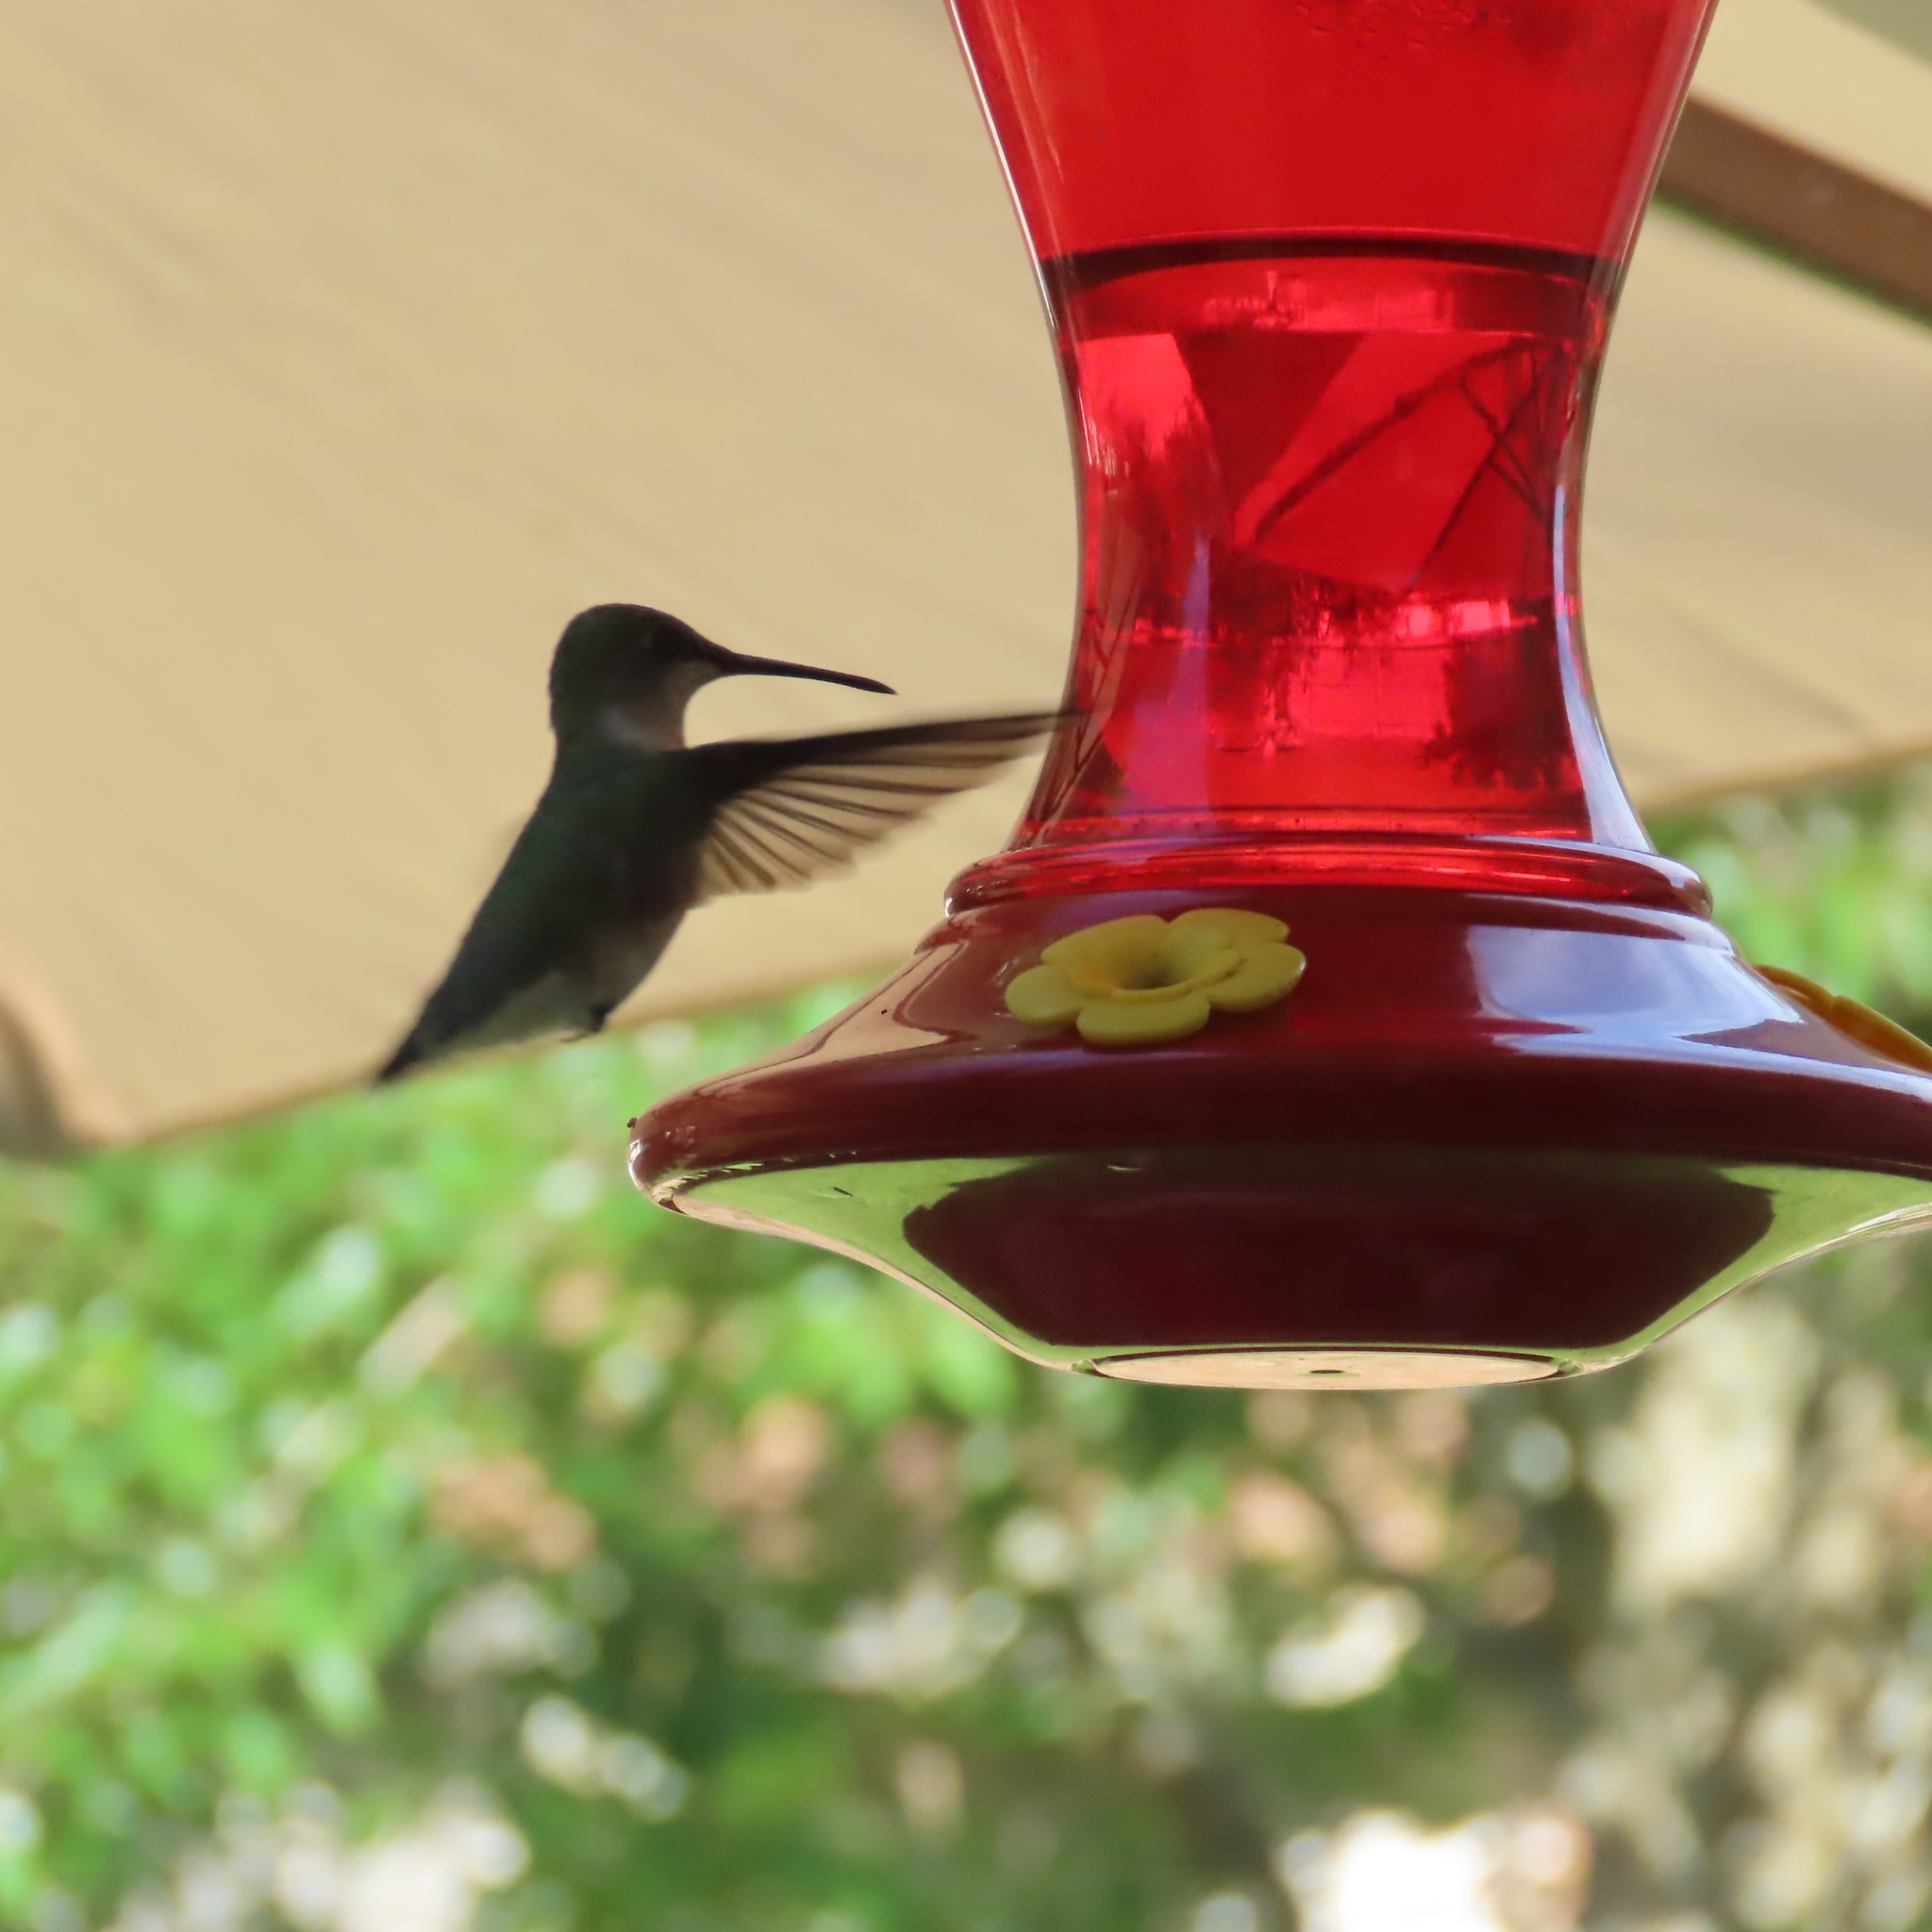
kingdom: Animalia
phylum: Chordata
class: Aves
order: Apodiformes
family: Trochilidae
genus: Archilochus
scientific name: Archilochus colubris
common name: Ruby-throated hummingbird
